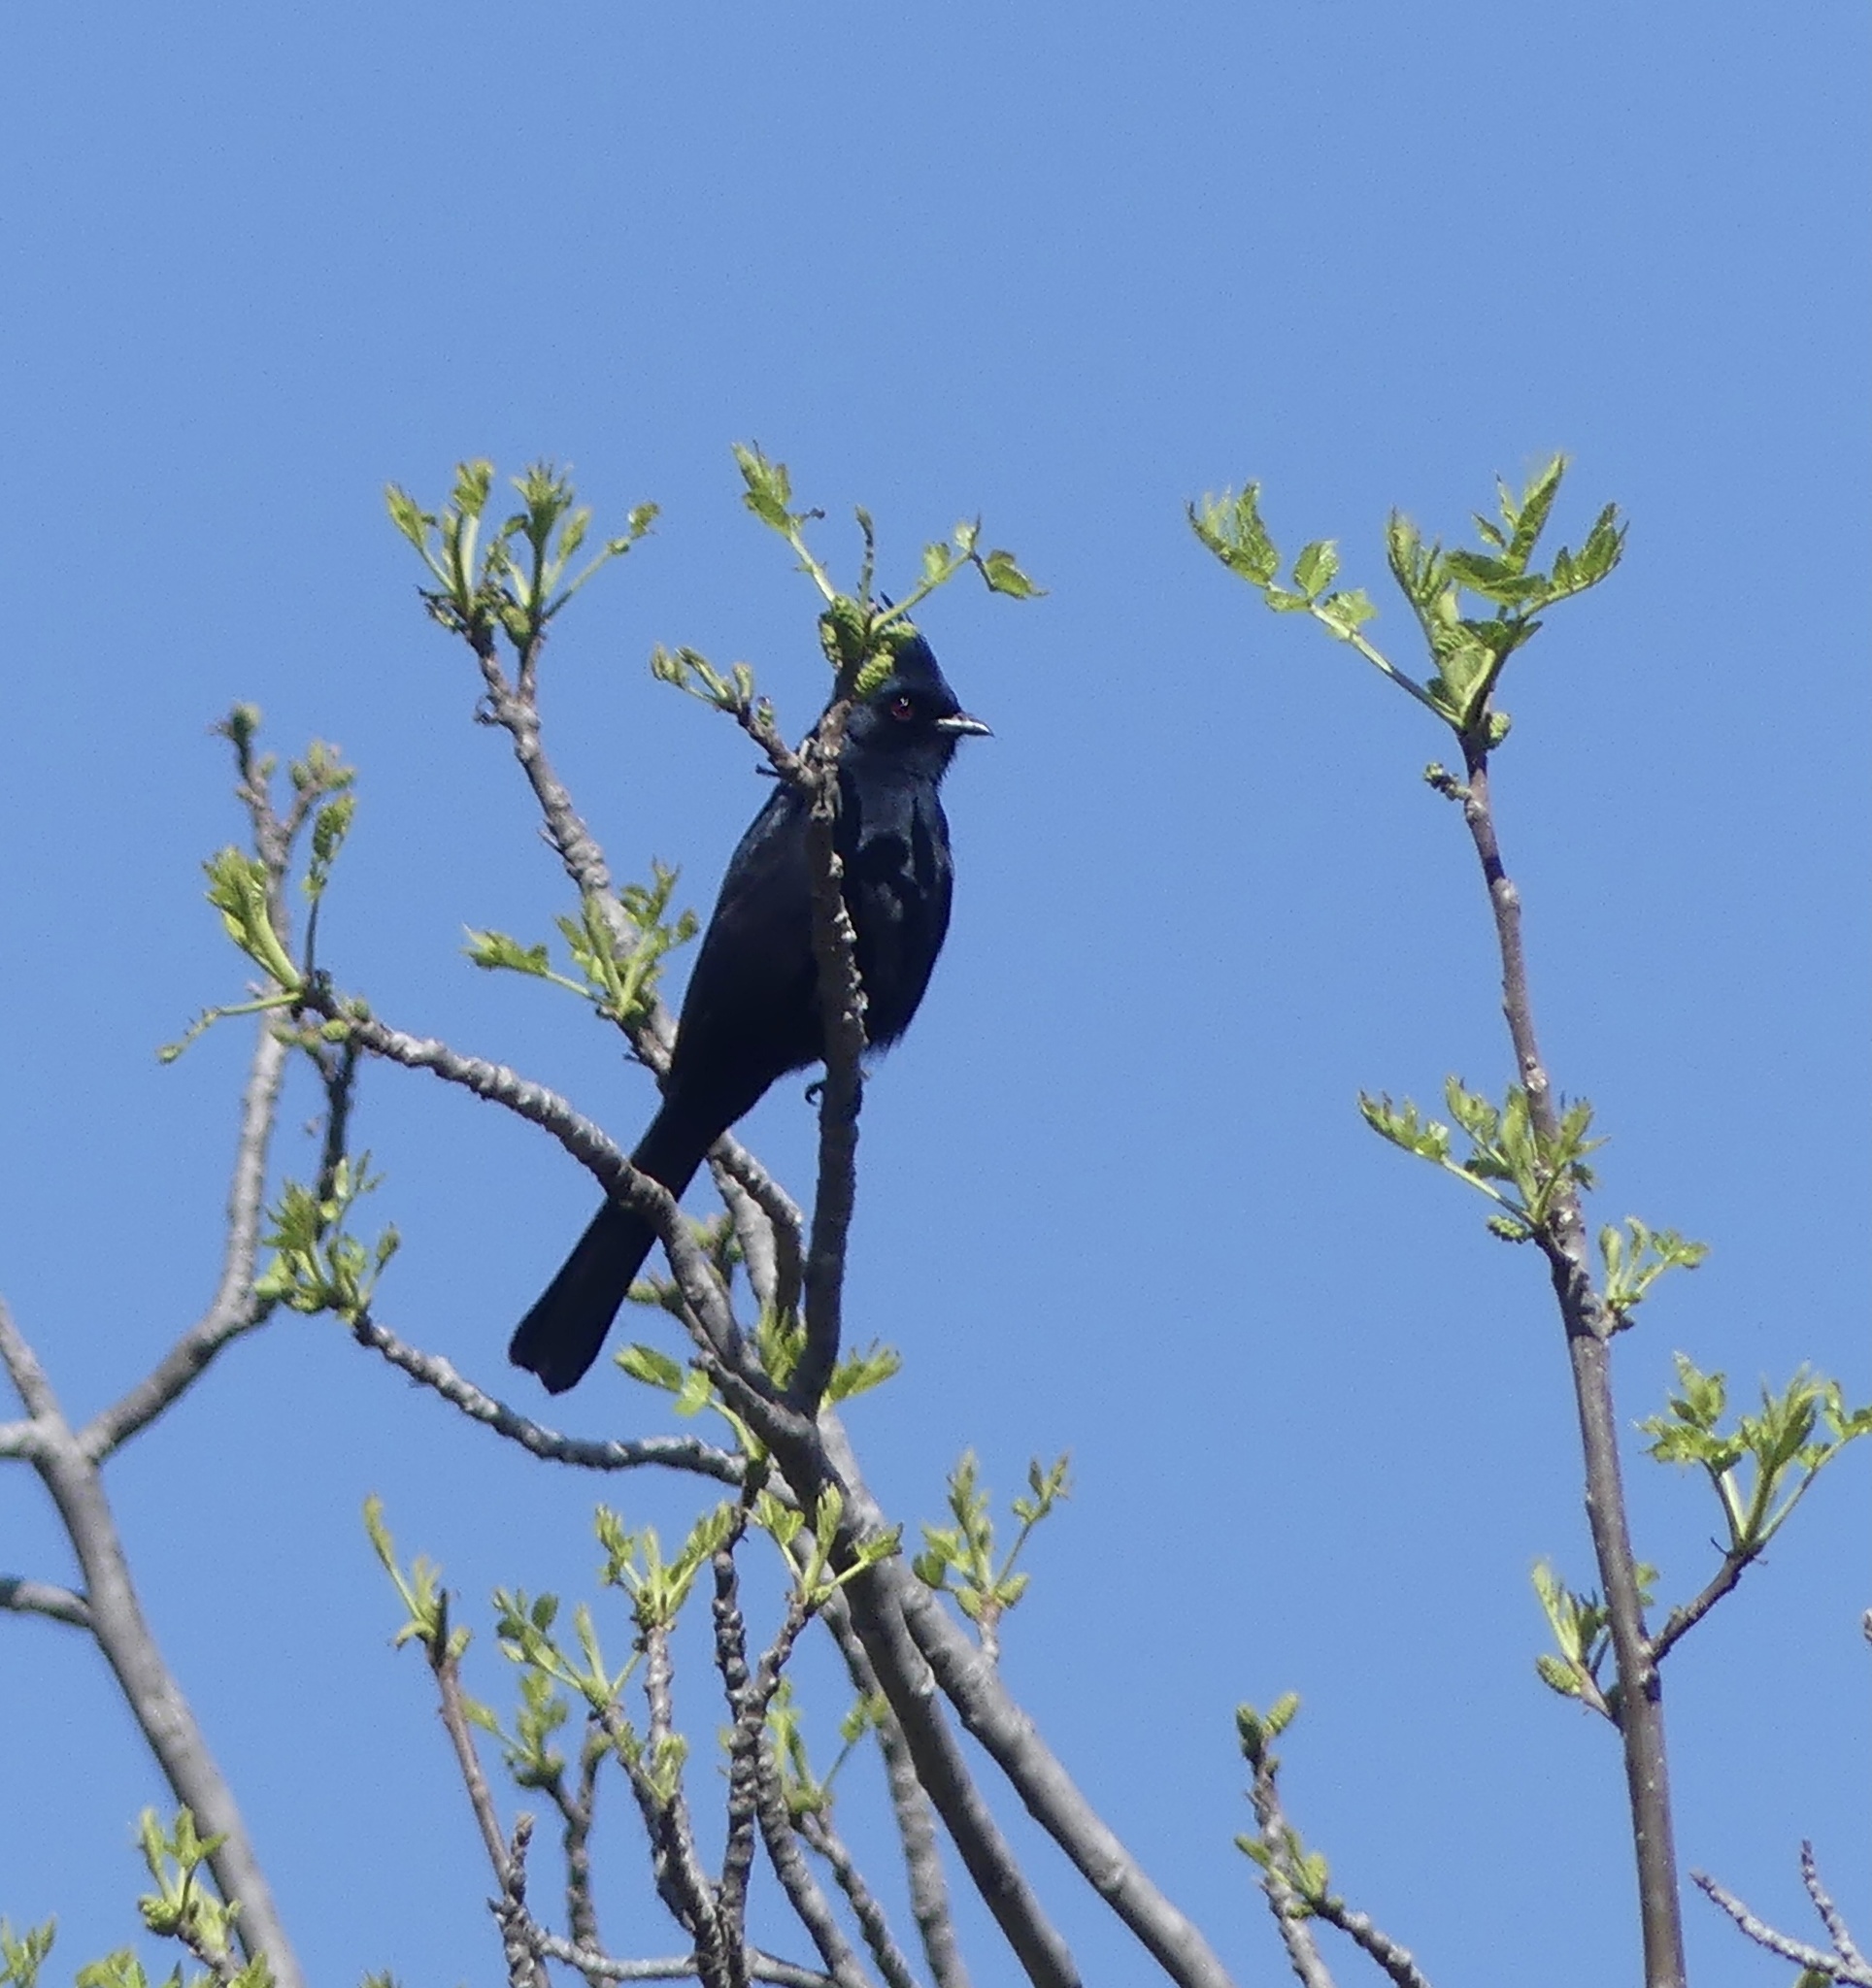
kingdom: Animalia
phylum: Chordata
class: Aves
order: Passeriformes
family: Ptilogonatidae
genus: Phainopepla
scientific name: Phainopepla nitens
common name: Phainopepla
